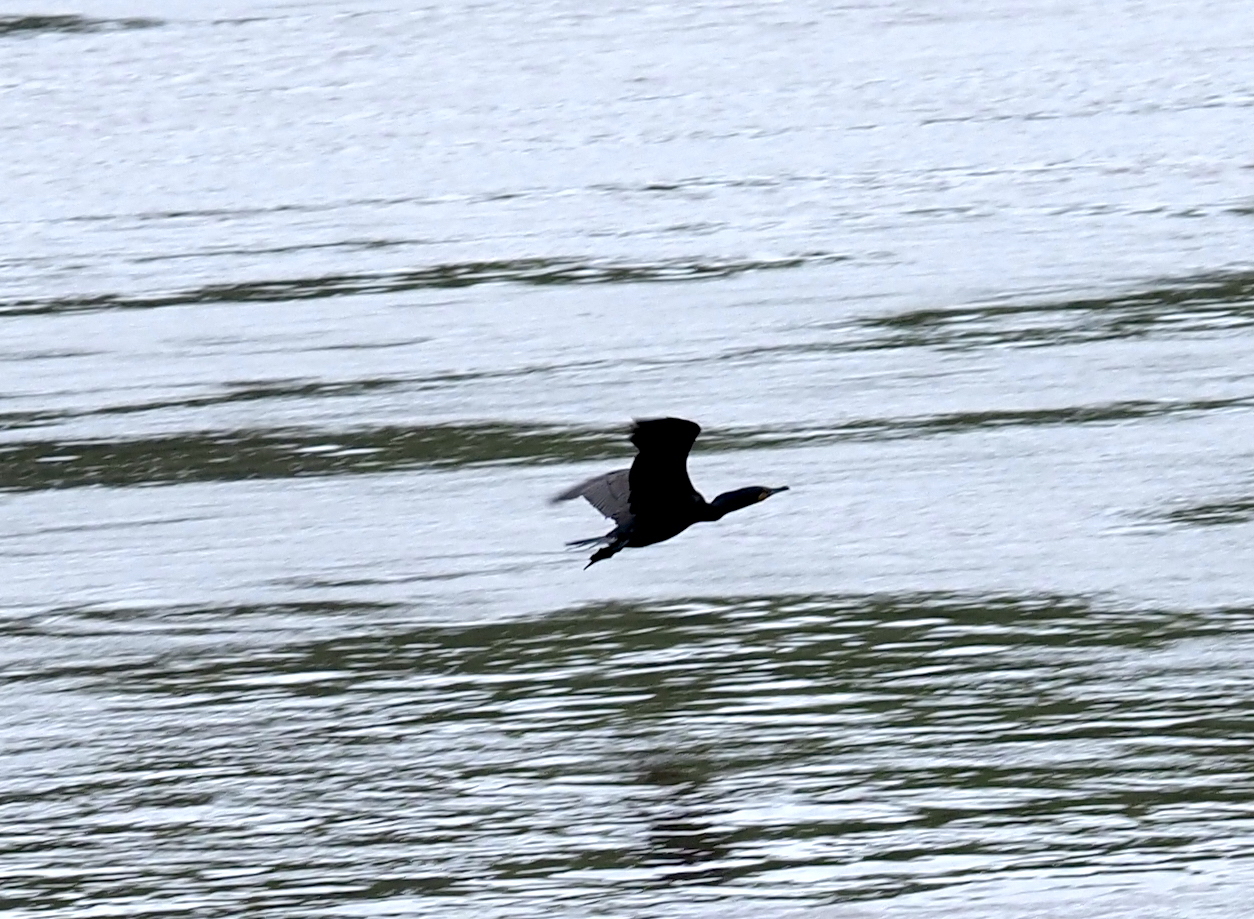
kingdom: Animalia
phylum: Chordata
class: Aves
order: Suliformes
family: Phalacrocoracidae
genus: Phalacrocorax
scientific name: Phalacrocorax auritus
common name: Double-crested cormorant
